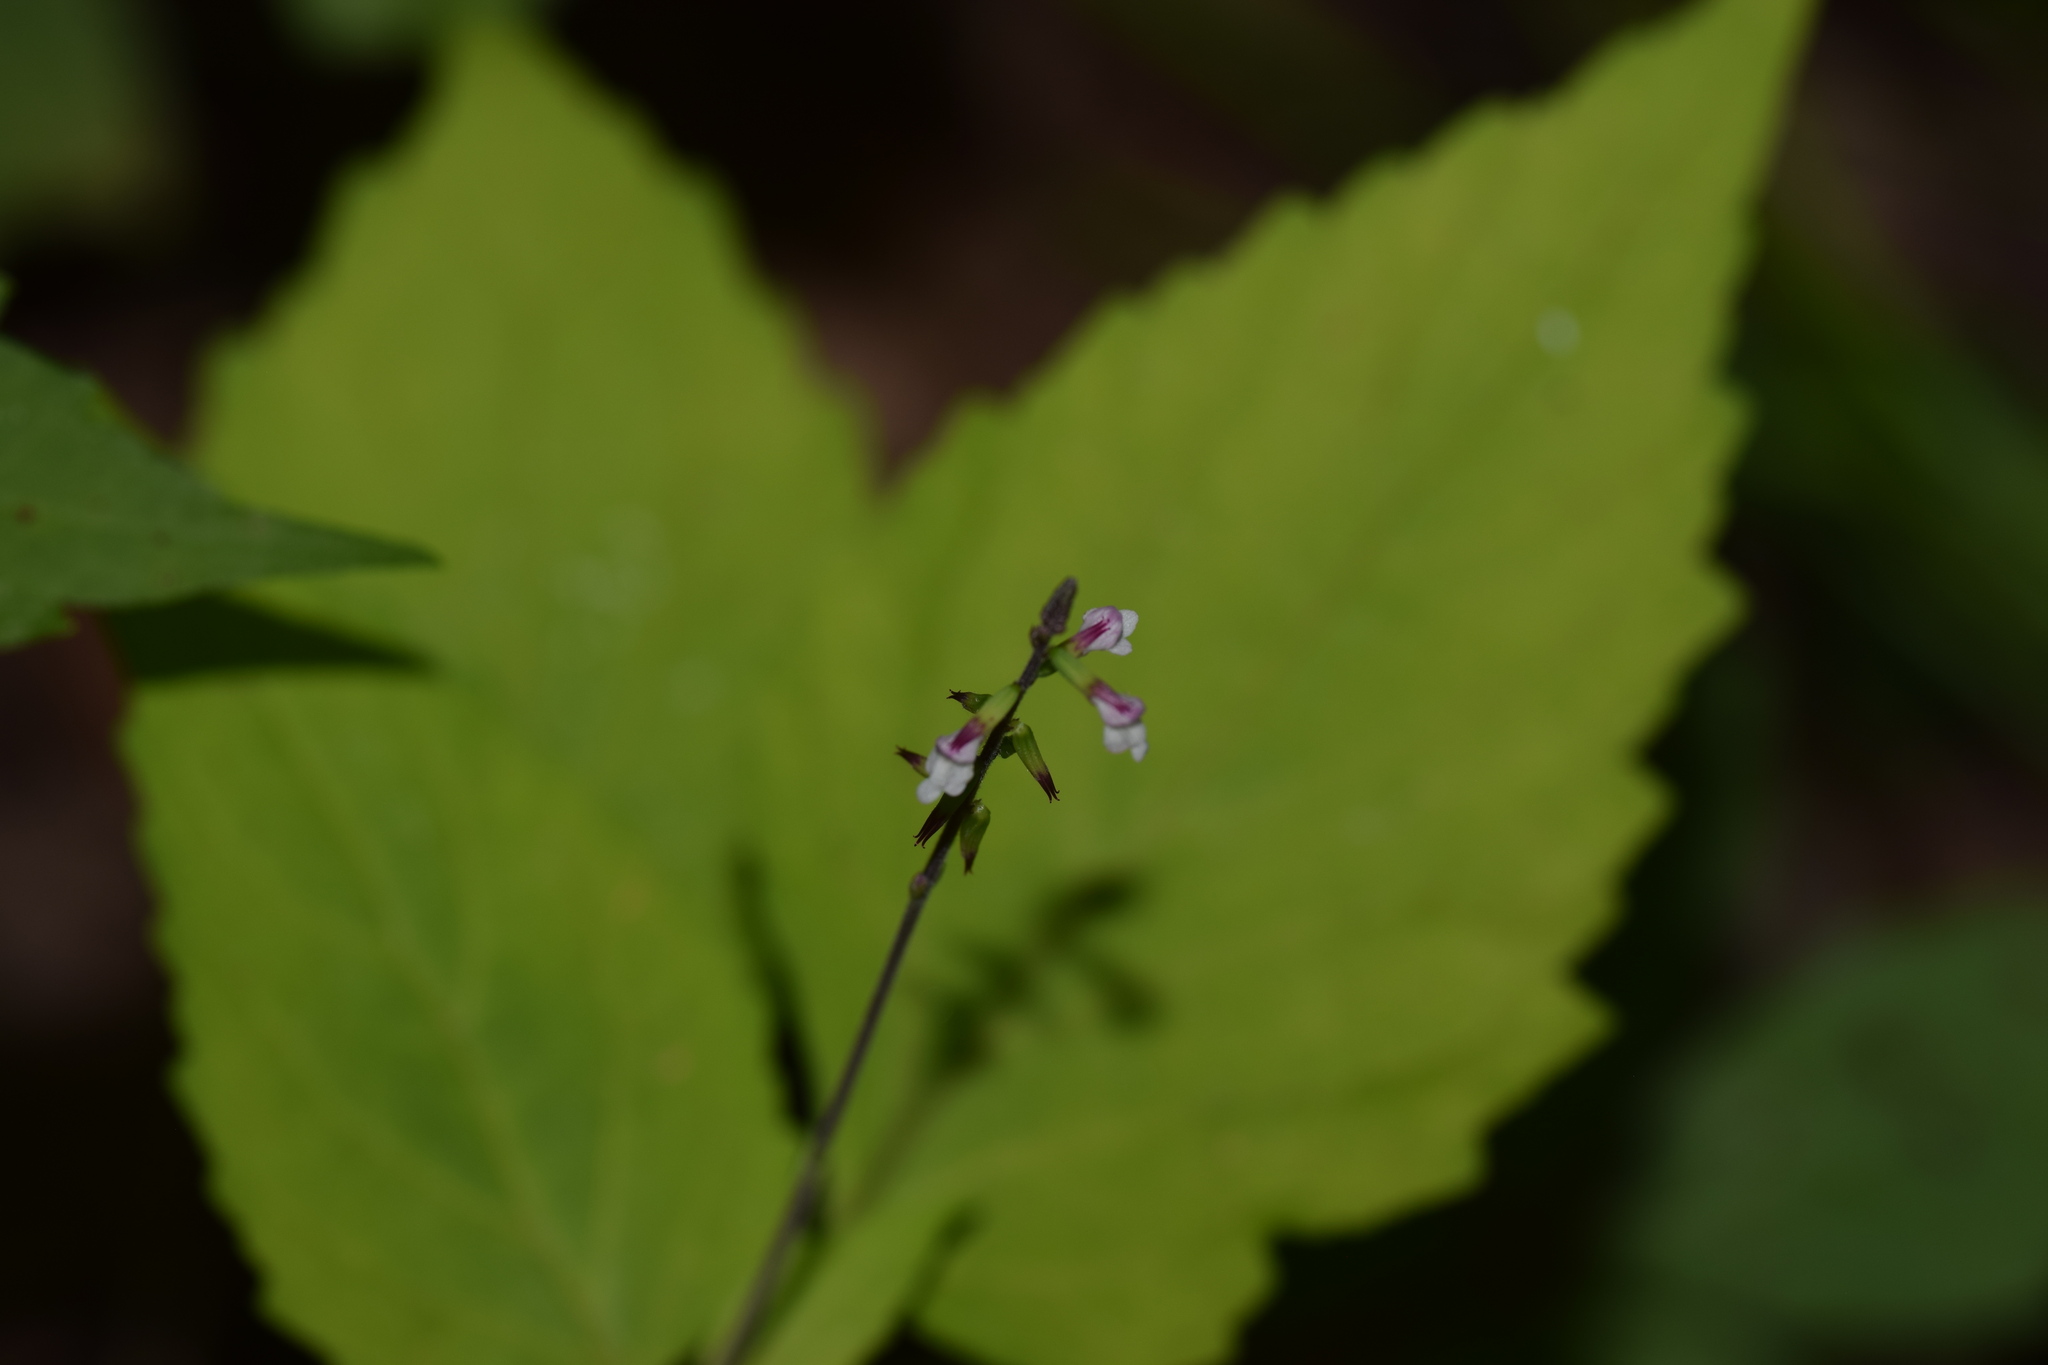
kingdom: Plantae
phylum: Tracheophyta
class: Magnoliopsida
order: Lamiales
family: Phrymaceae
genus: Phryma
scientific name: Phryma leptostachya
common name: American lopseed
